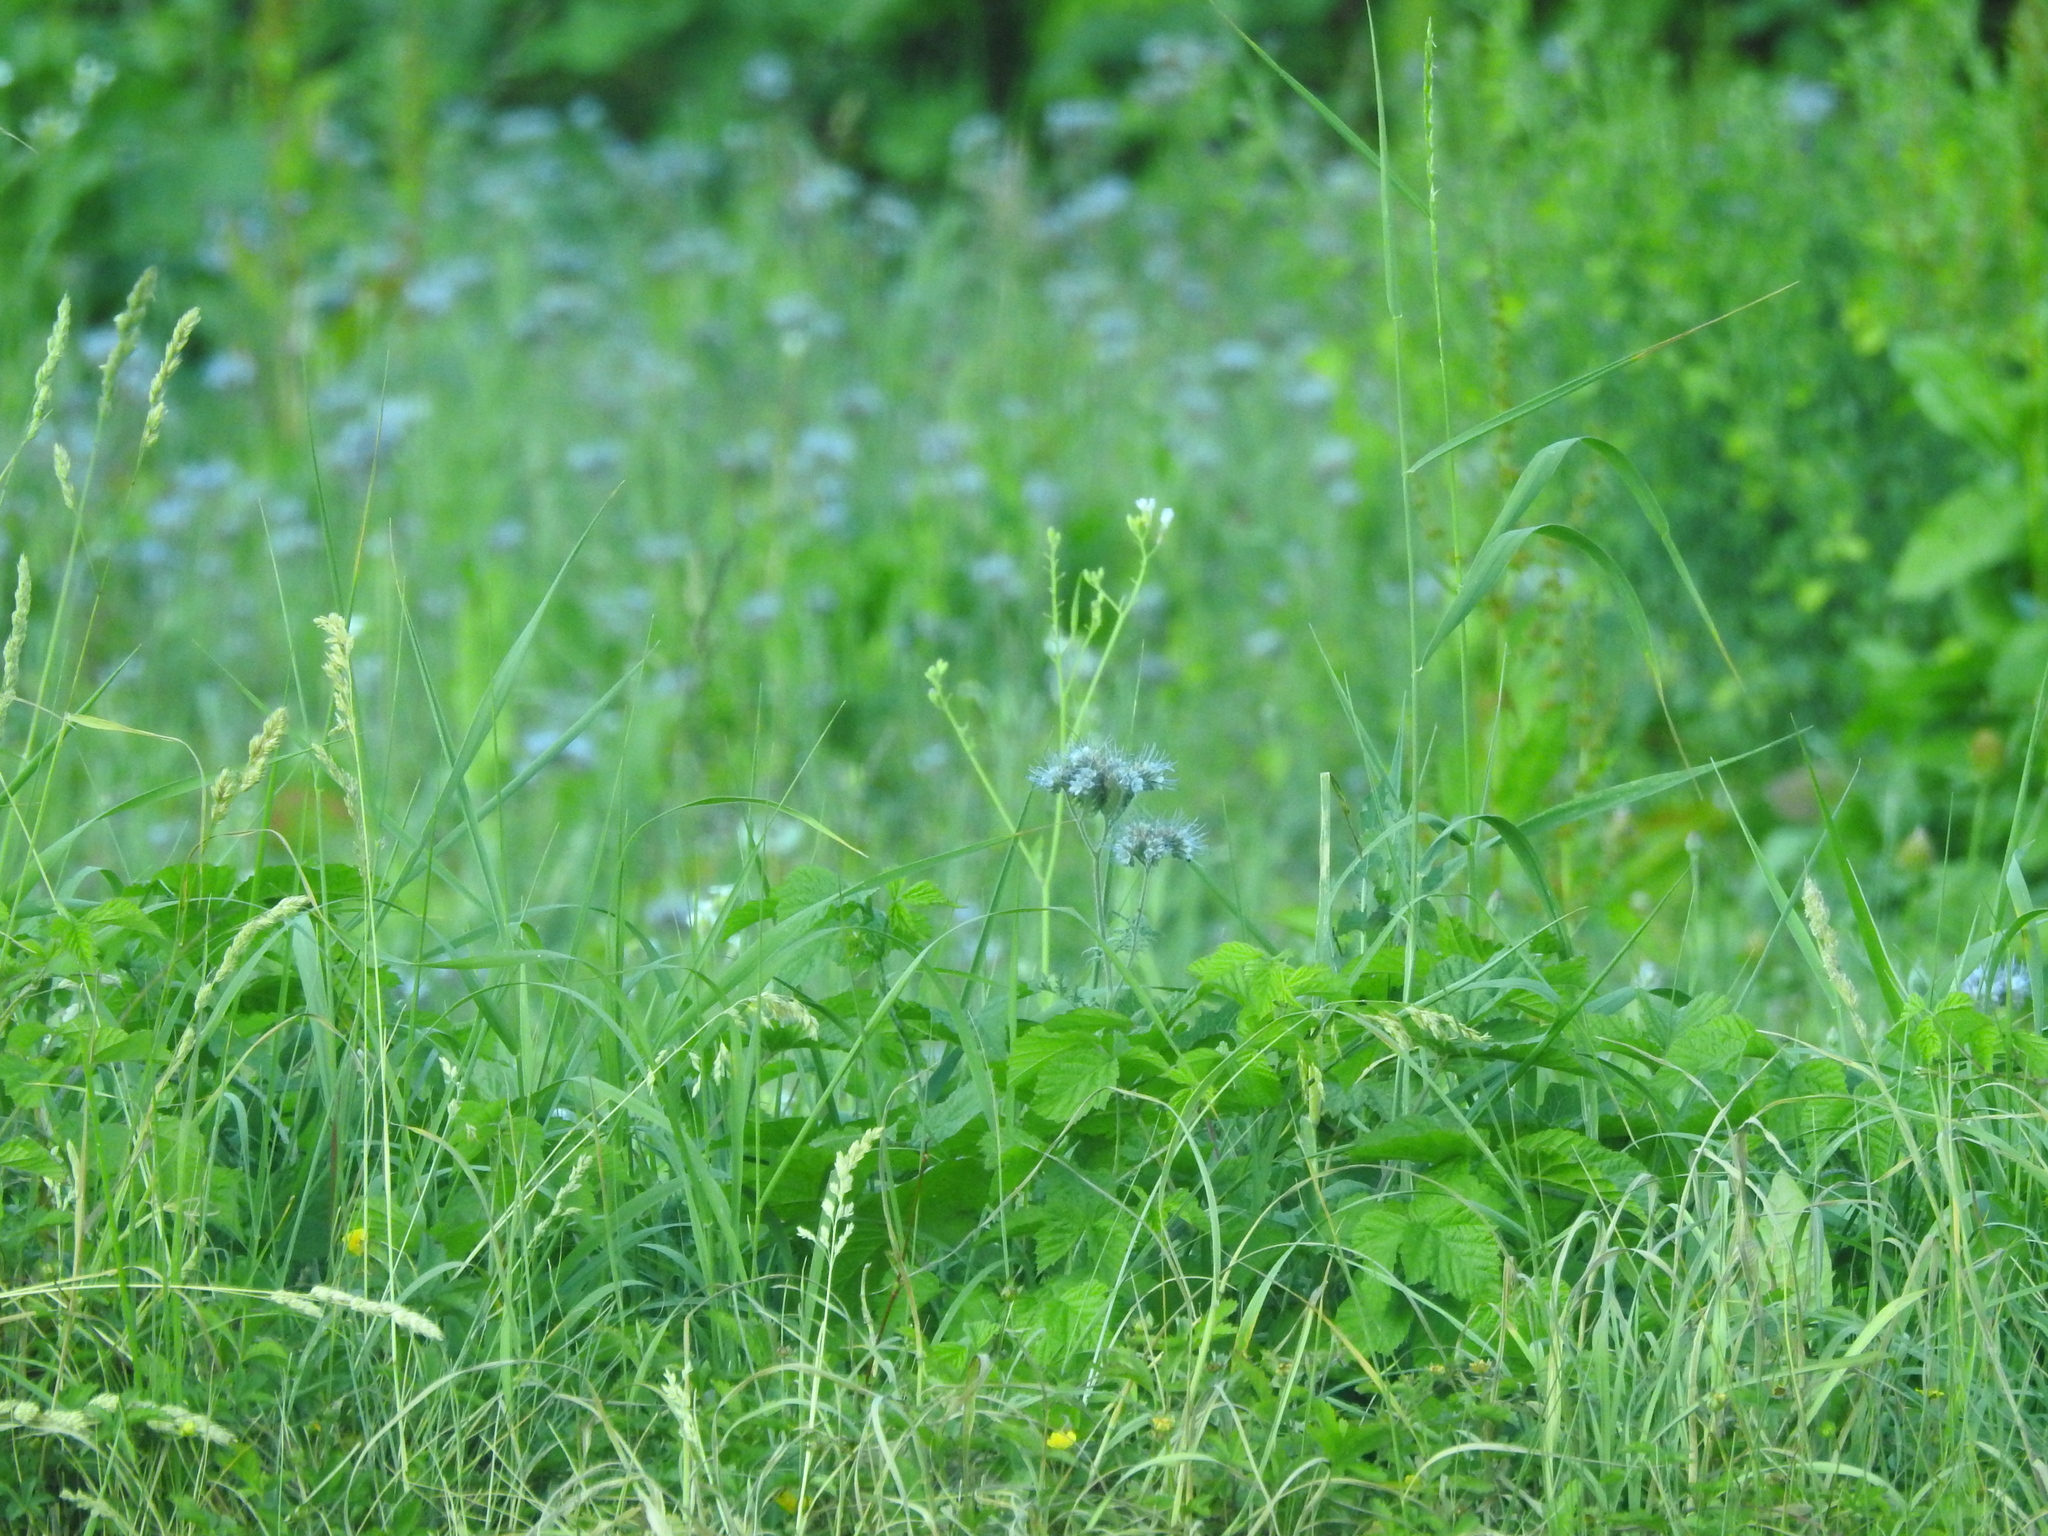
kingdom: Plantae
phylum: Tracheophyta
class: Magnoliopsida
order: Boraginales
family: Hydrophyllaceae
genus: Phacelia
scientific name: Phacelia tanacetifolia
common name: Phacelia
